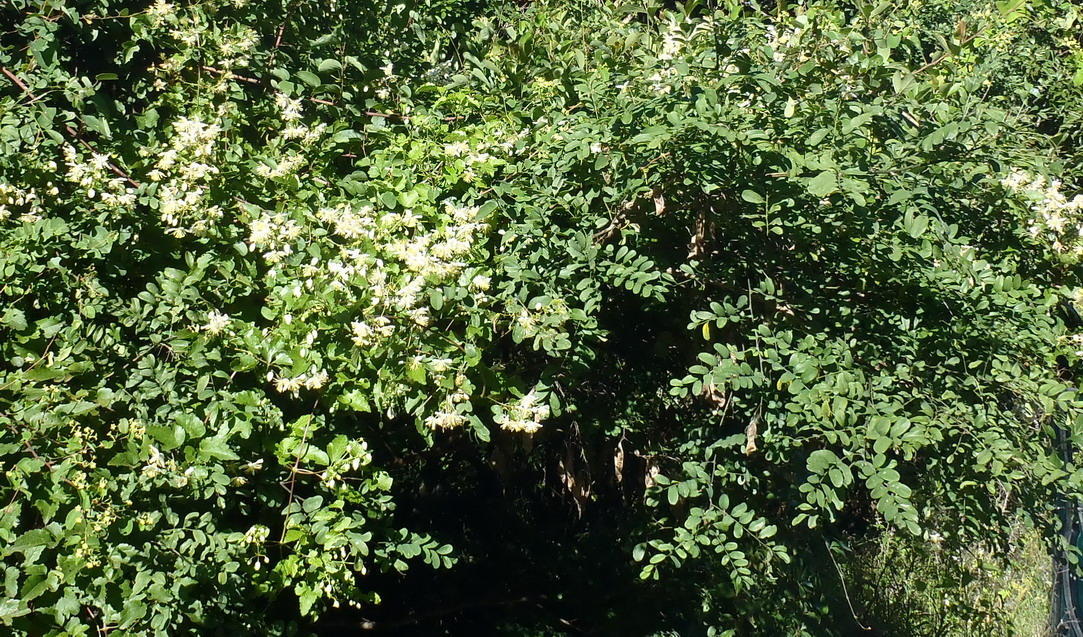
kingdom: Plantae
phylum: Tracheophyta
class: Magnoliopsida
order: Ranunculales
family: Ranunculaceae
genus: Clematis
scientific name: Clematis brachiata
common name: Traveler's-joy
